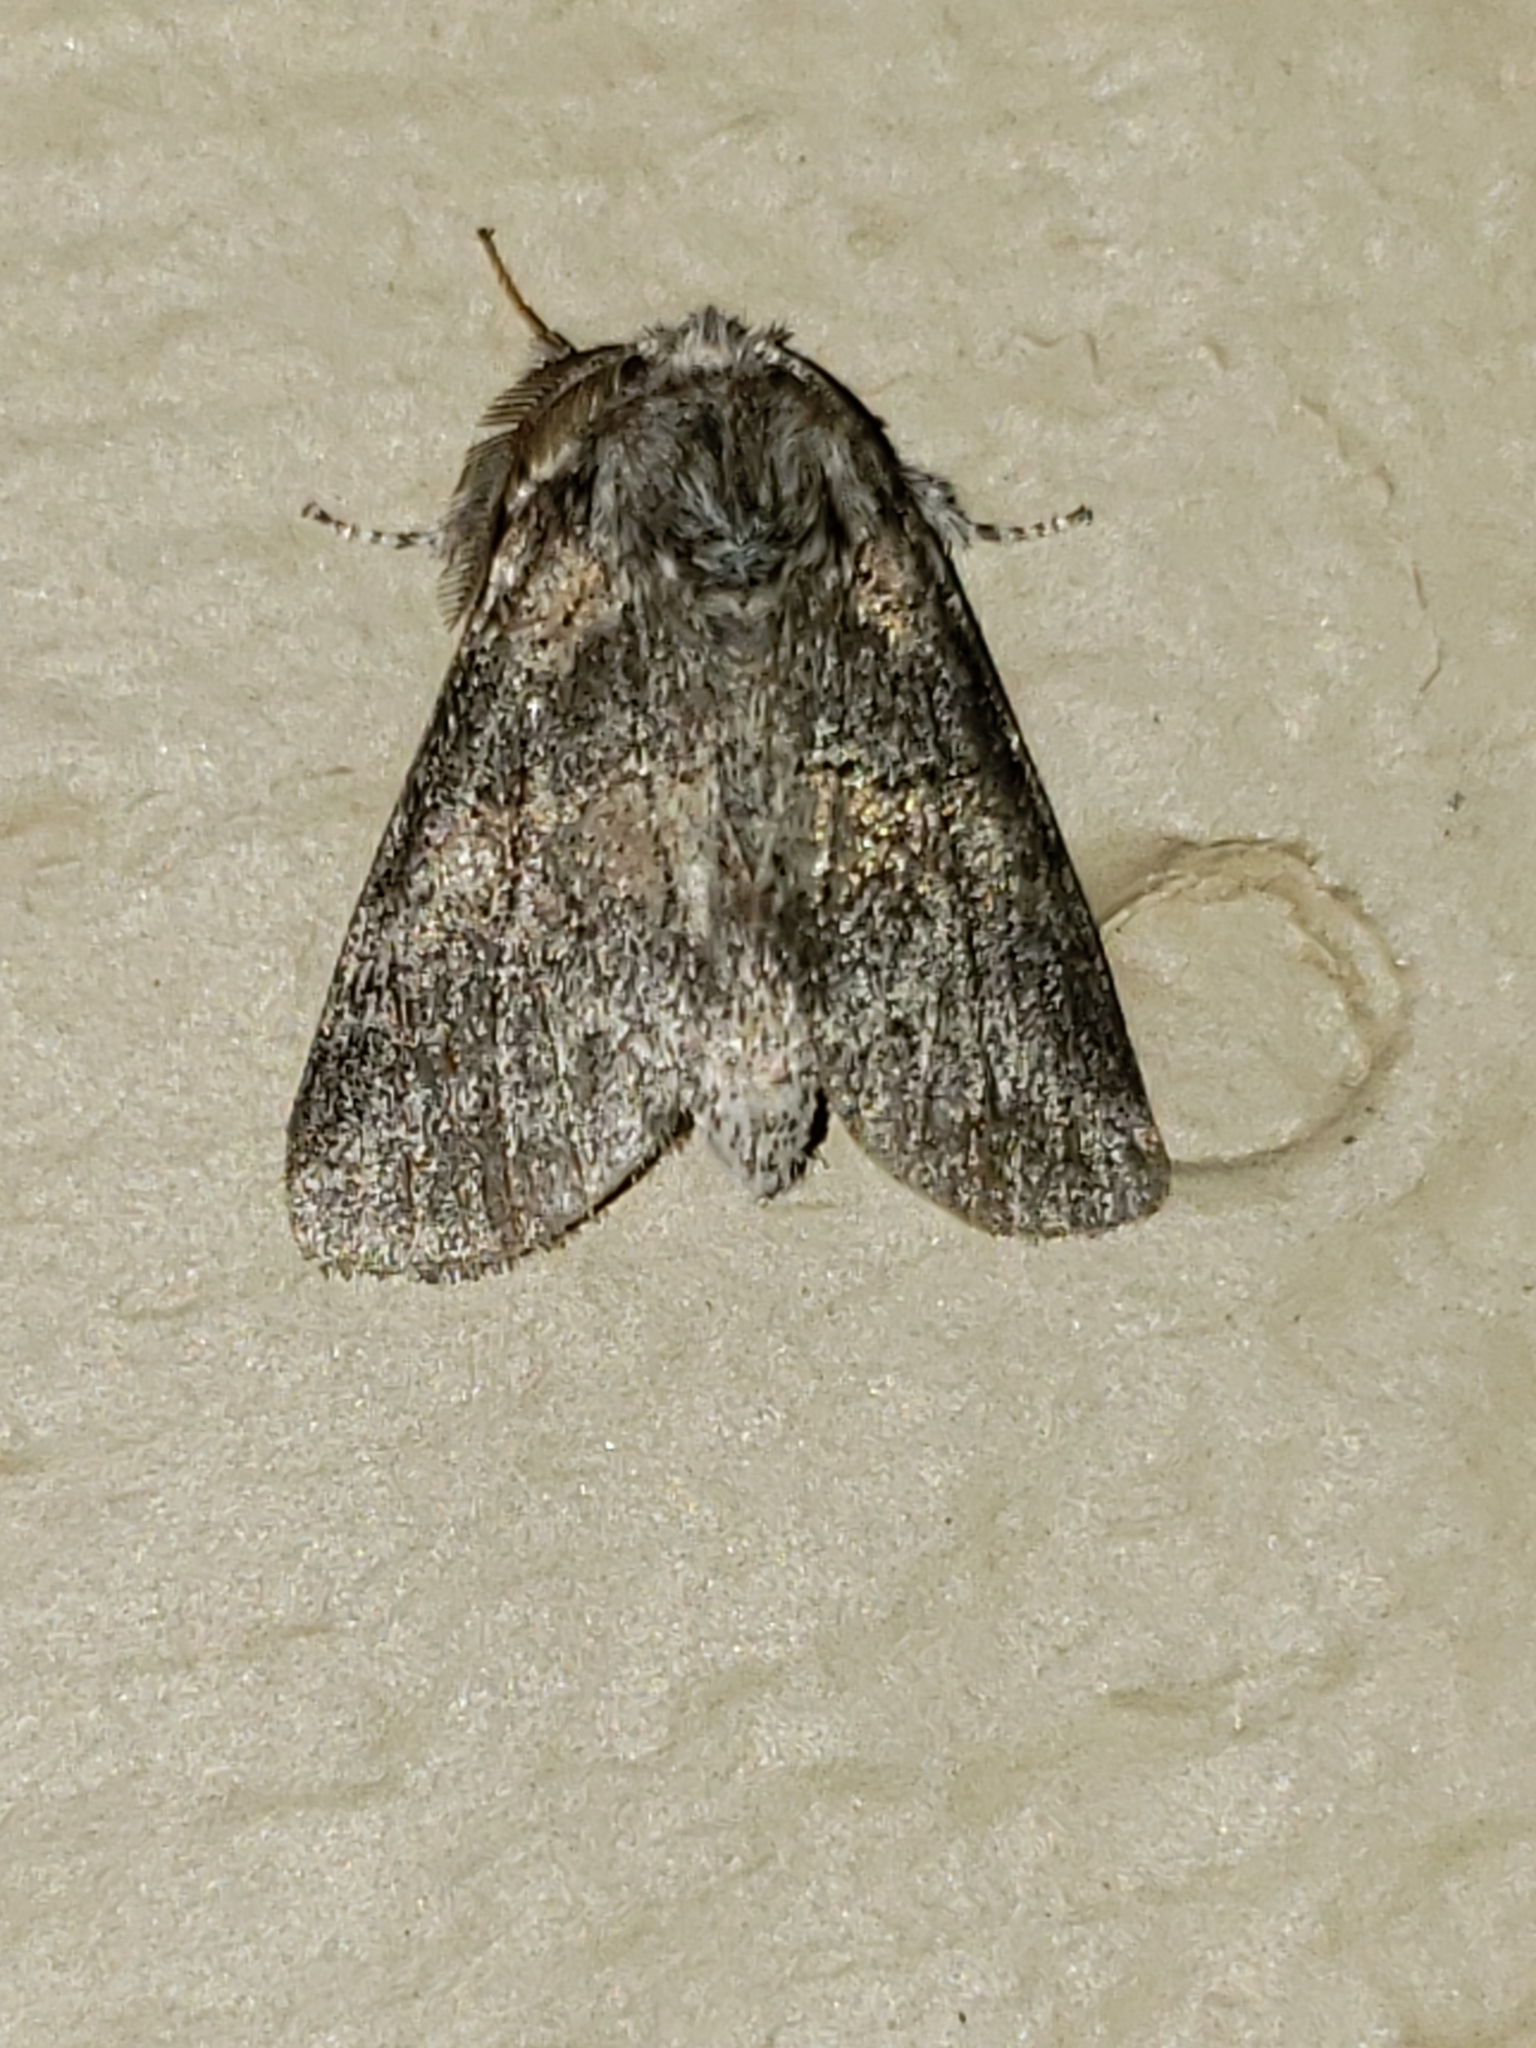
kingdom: Animalia
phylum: Arthropoda
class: Insecta
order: Lepidoptera
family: Notodontidae
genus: Gluphisia
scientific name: Gluphisia septentrionis
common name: Common gluphisia
